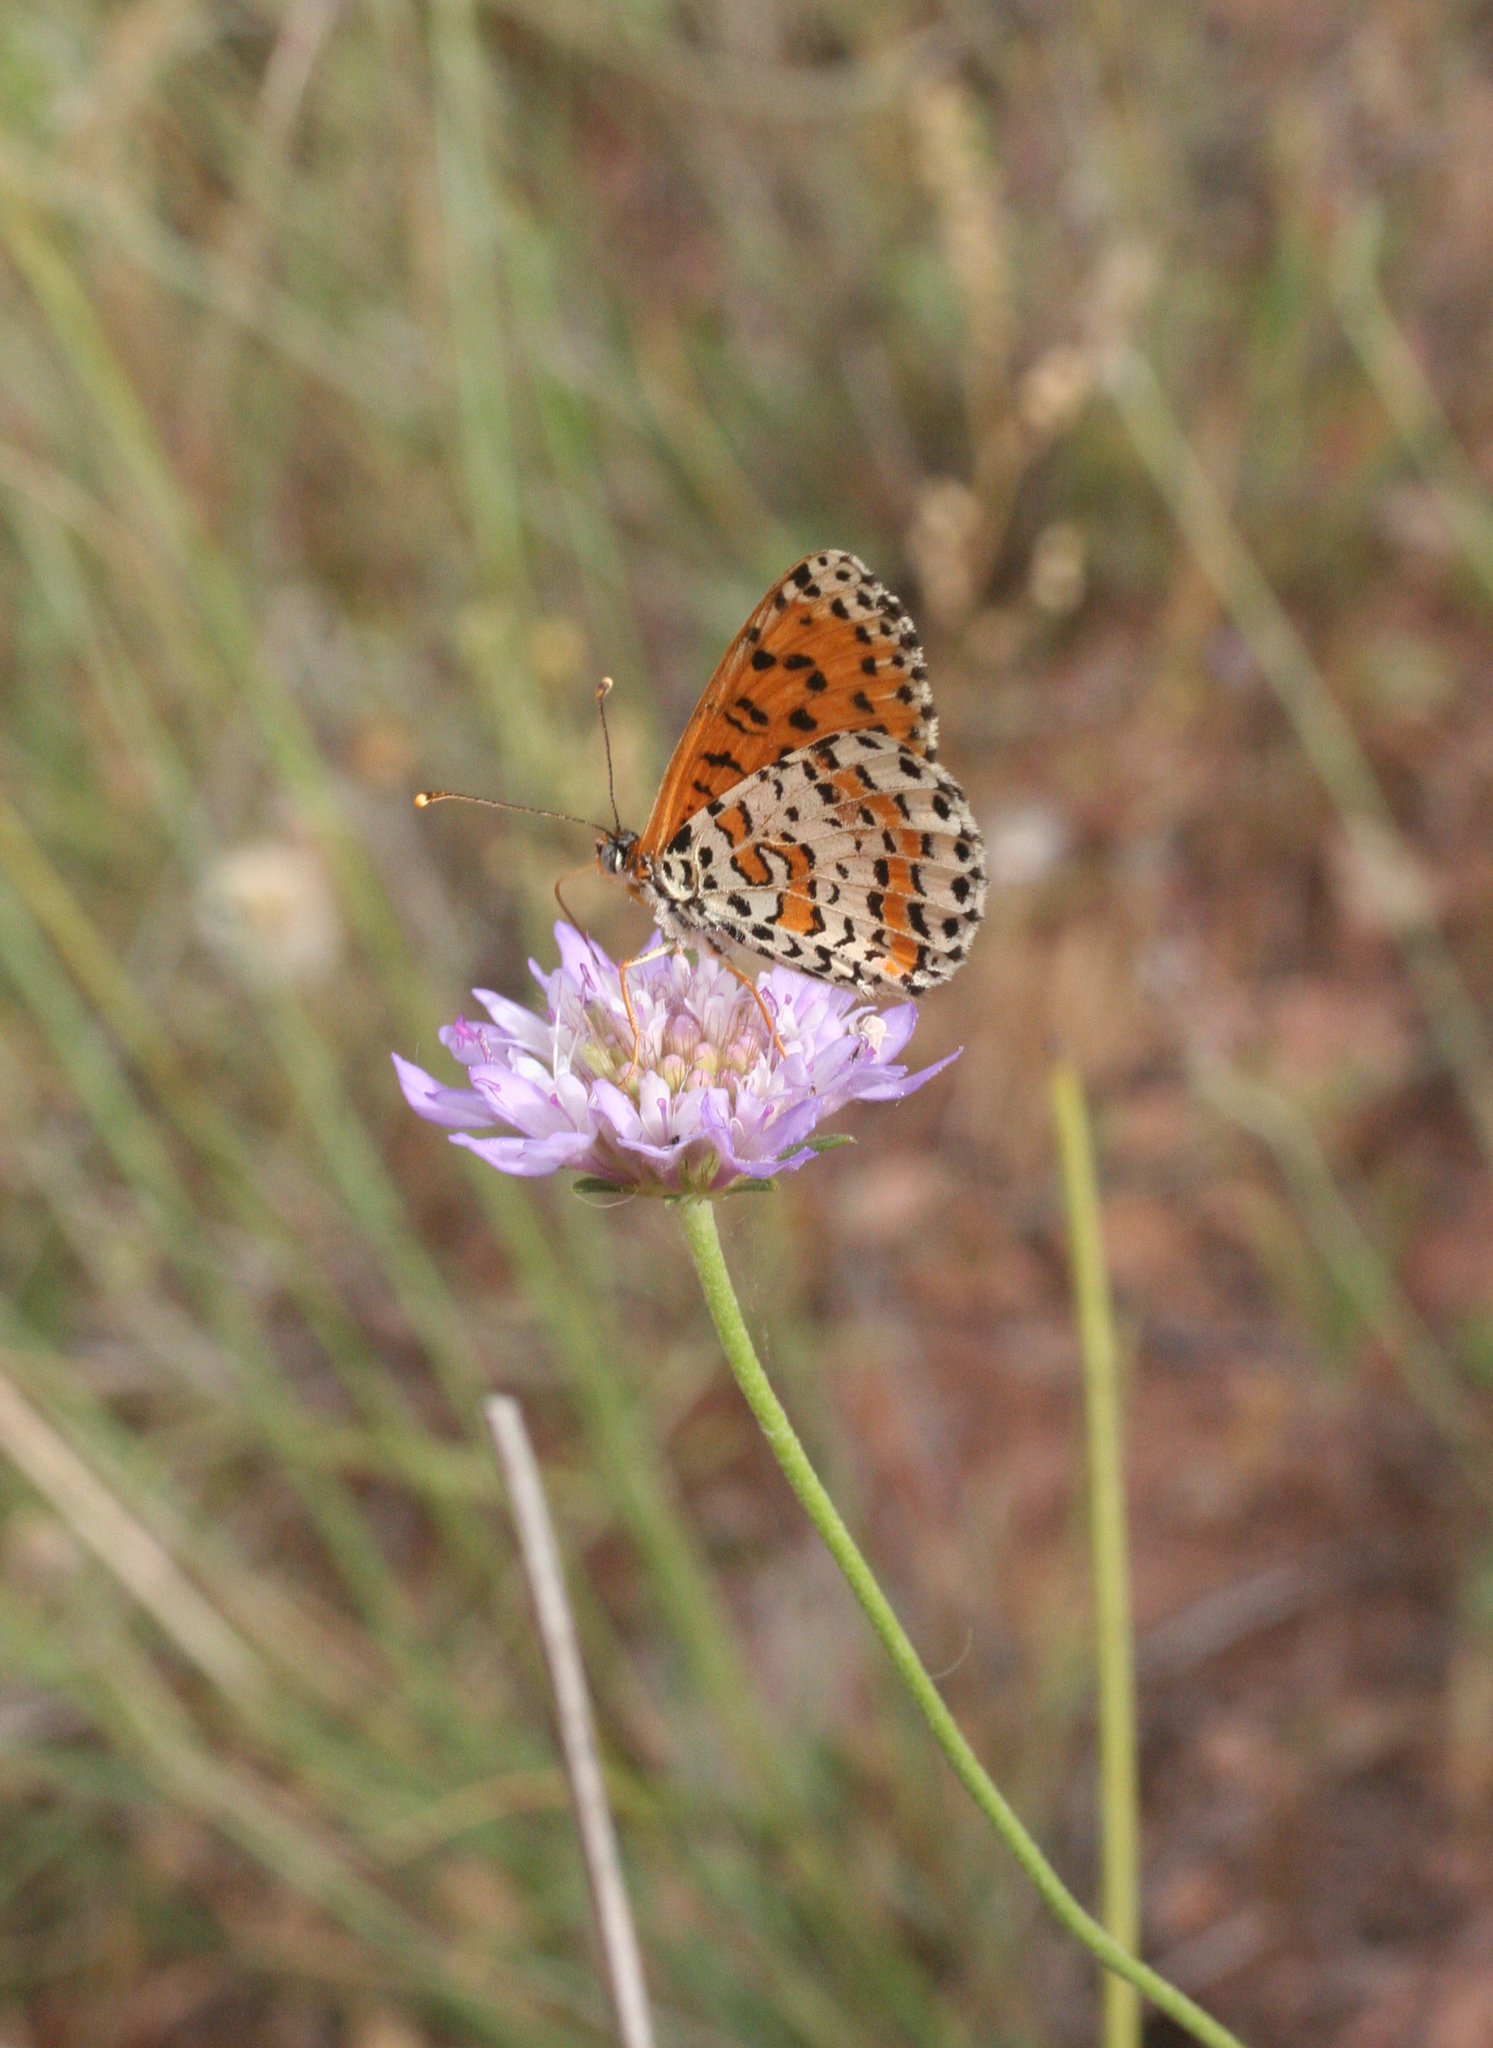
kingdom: Animalia
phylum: Arthropoda
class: Insecta
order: Lepidoptera
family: Nymphalidae
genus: Melitaea
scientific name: Melitaea didyma
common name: Spotted fritillary
